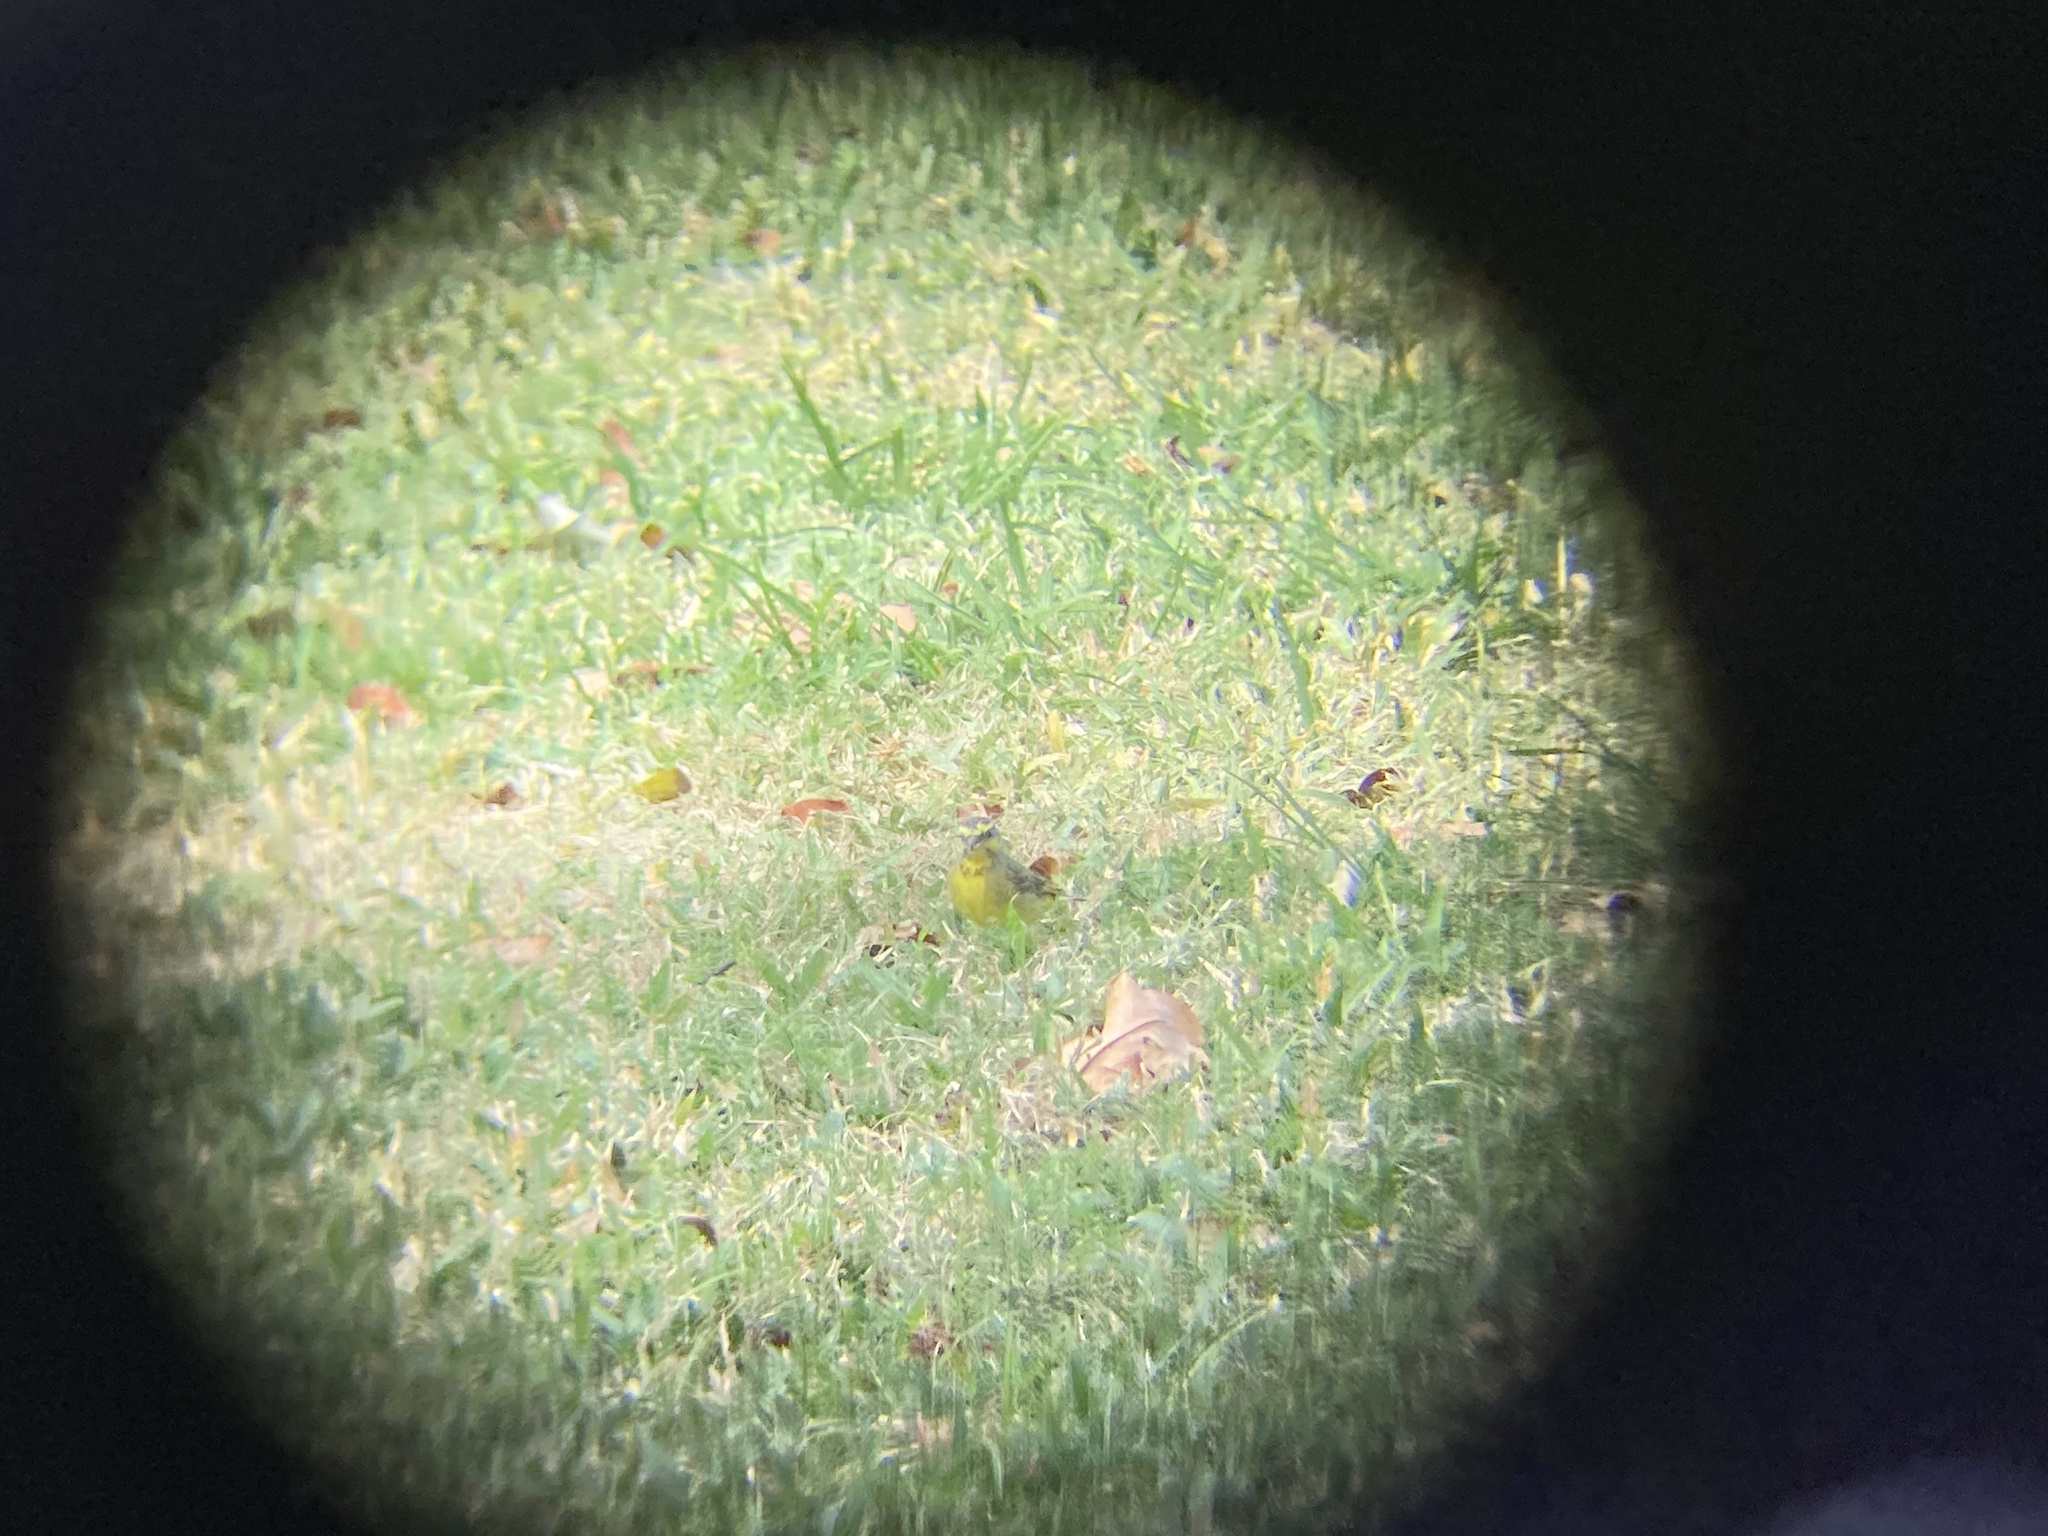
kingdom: Animalia
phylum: Chordata
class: Aves
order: Passeriformes
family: Fringillidae
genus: Crithagra
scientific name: Crithagra mozambica
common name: Yellow-fronted canary
